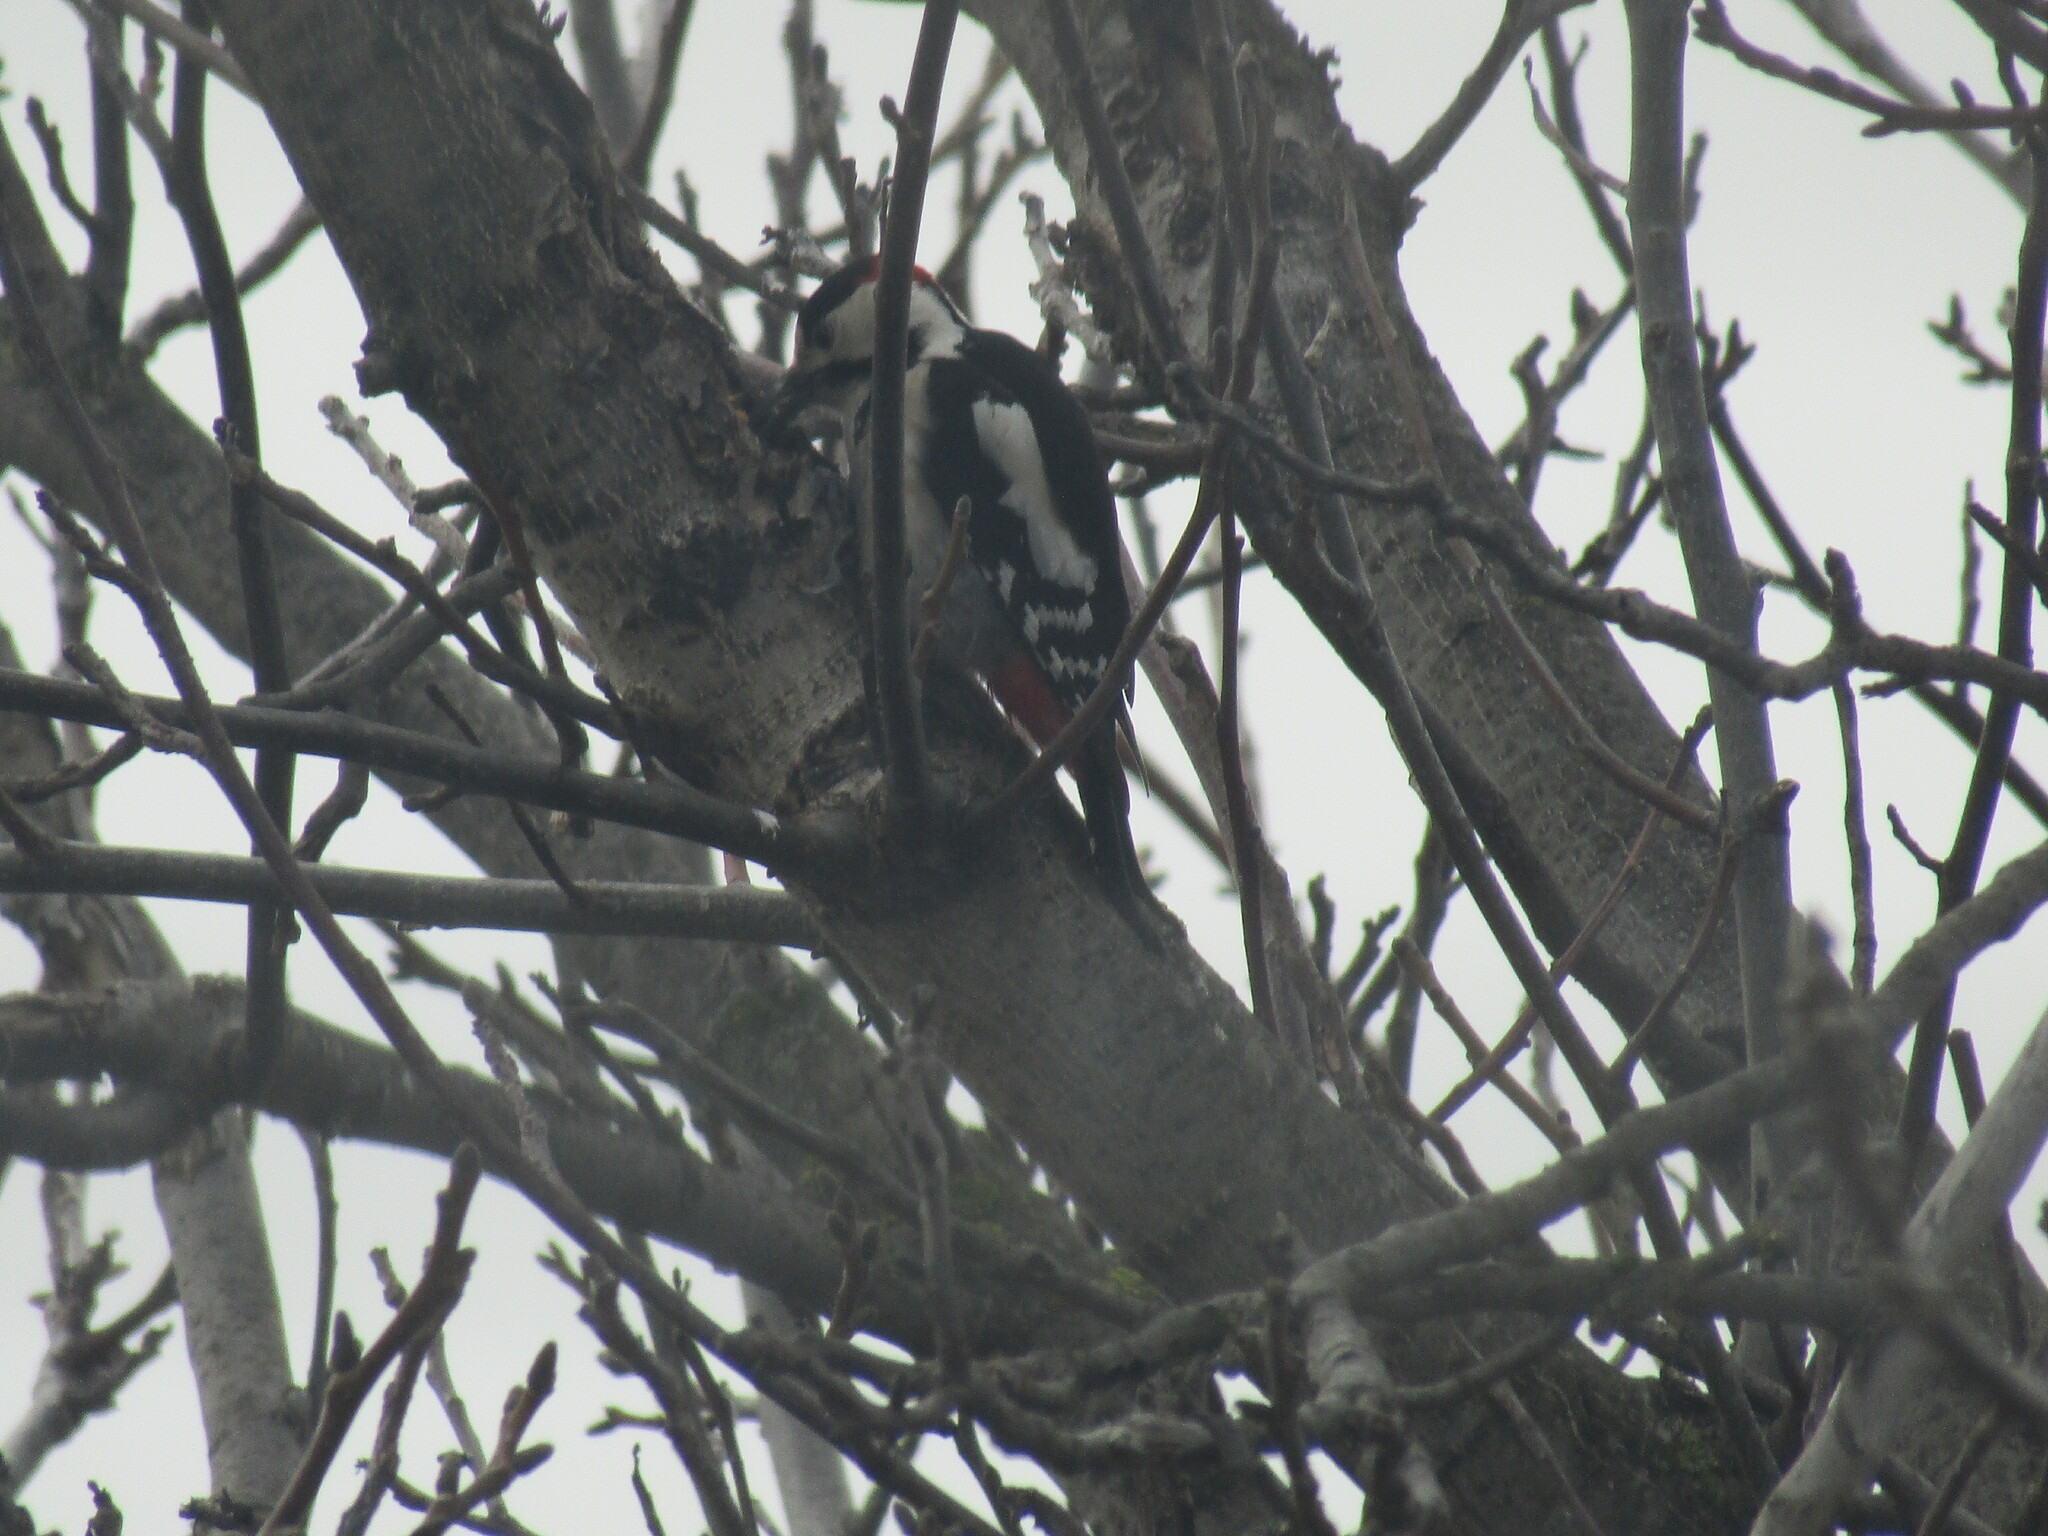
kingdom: Animalia
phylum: Chordata
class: Aves
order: Piciformes
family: Picidae
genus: Dendrocopos
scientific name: Dendrocopos syriacus
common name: Syrian woodpecker
